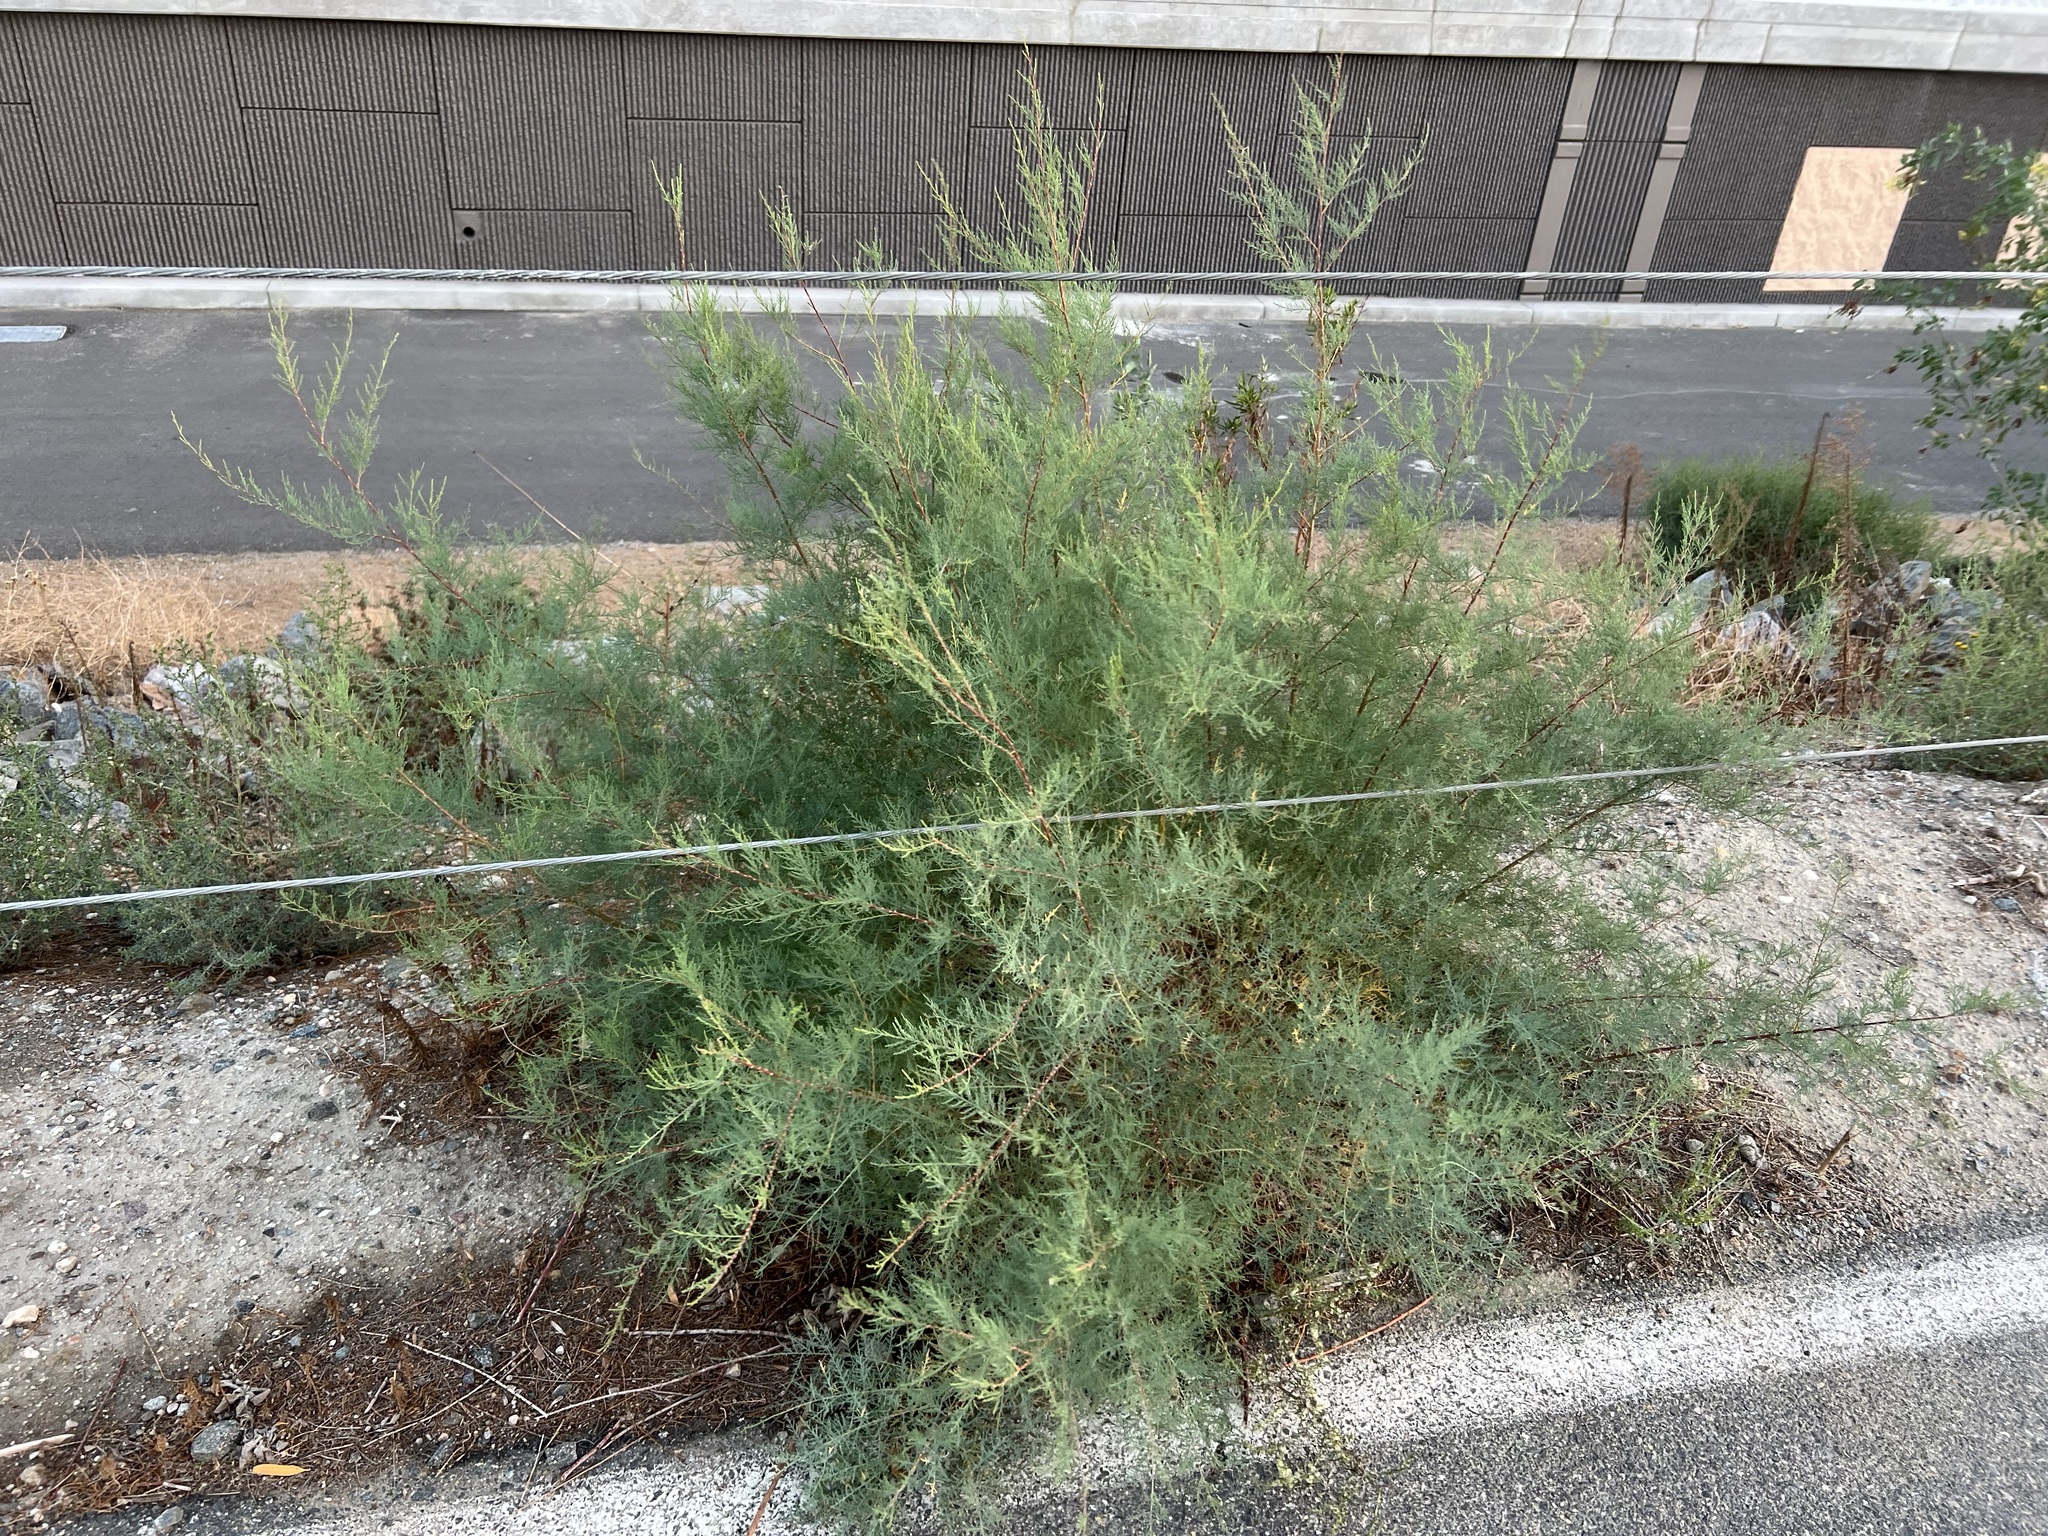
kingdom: Plantae
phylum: Tracheophyta
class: Magnoliopsida
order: Caryophyllales
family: Tamaricaceae
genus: Tamarix
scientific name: Tamarix
